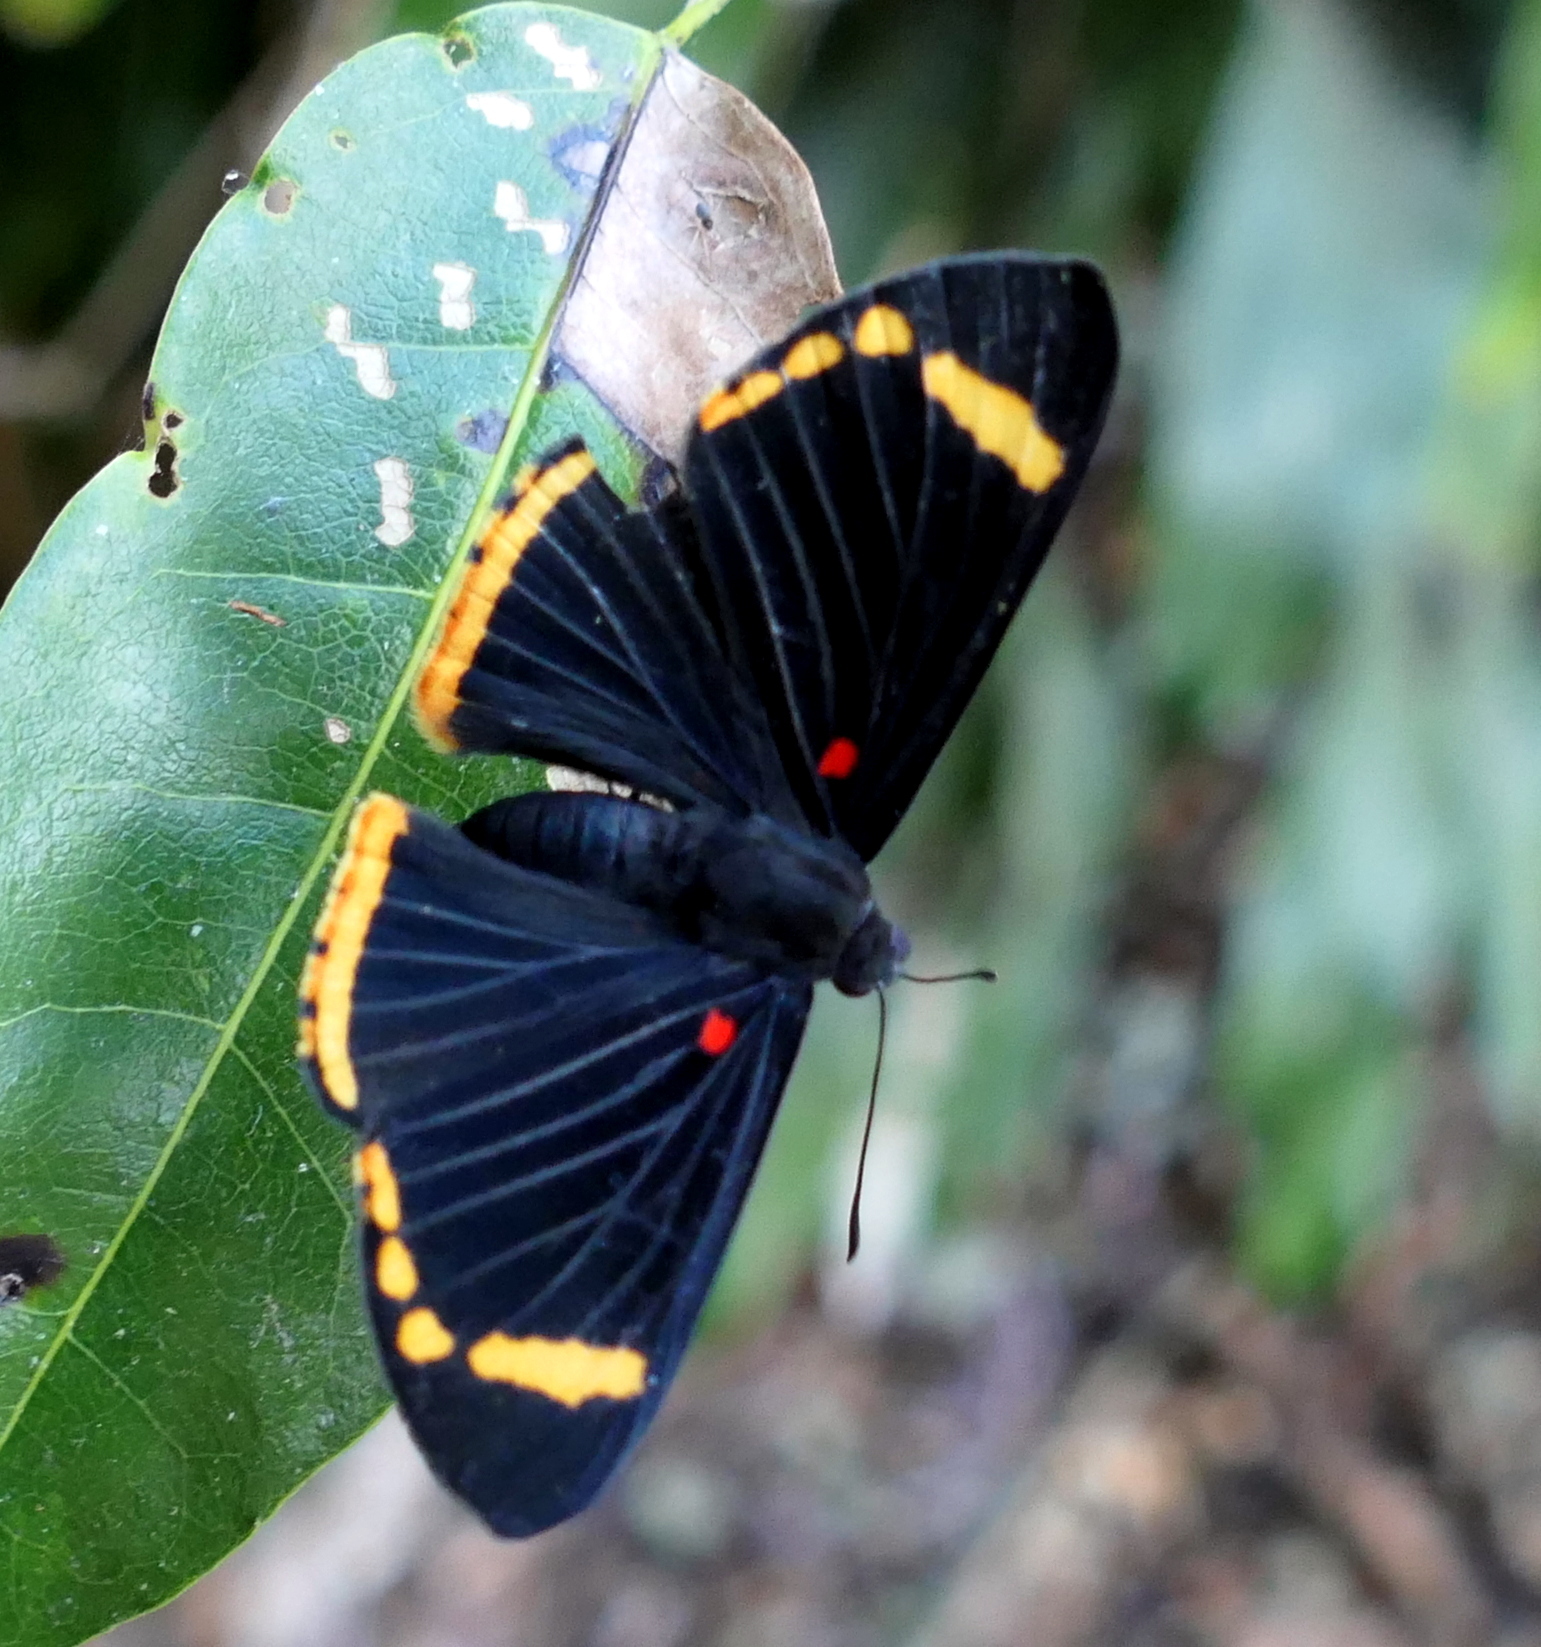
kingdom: Animalia
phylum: Arthropoda
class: Insecta
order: Lepidoptera
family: Lycaenidae
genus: Melanis
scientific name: Melanis xenia
